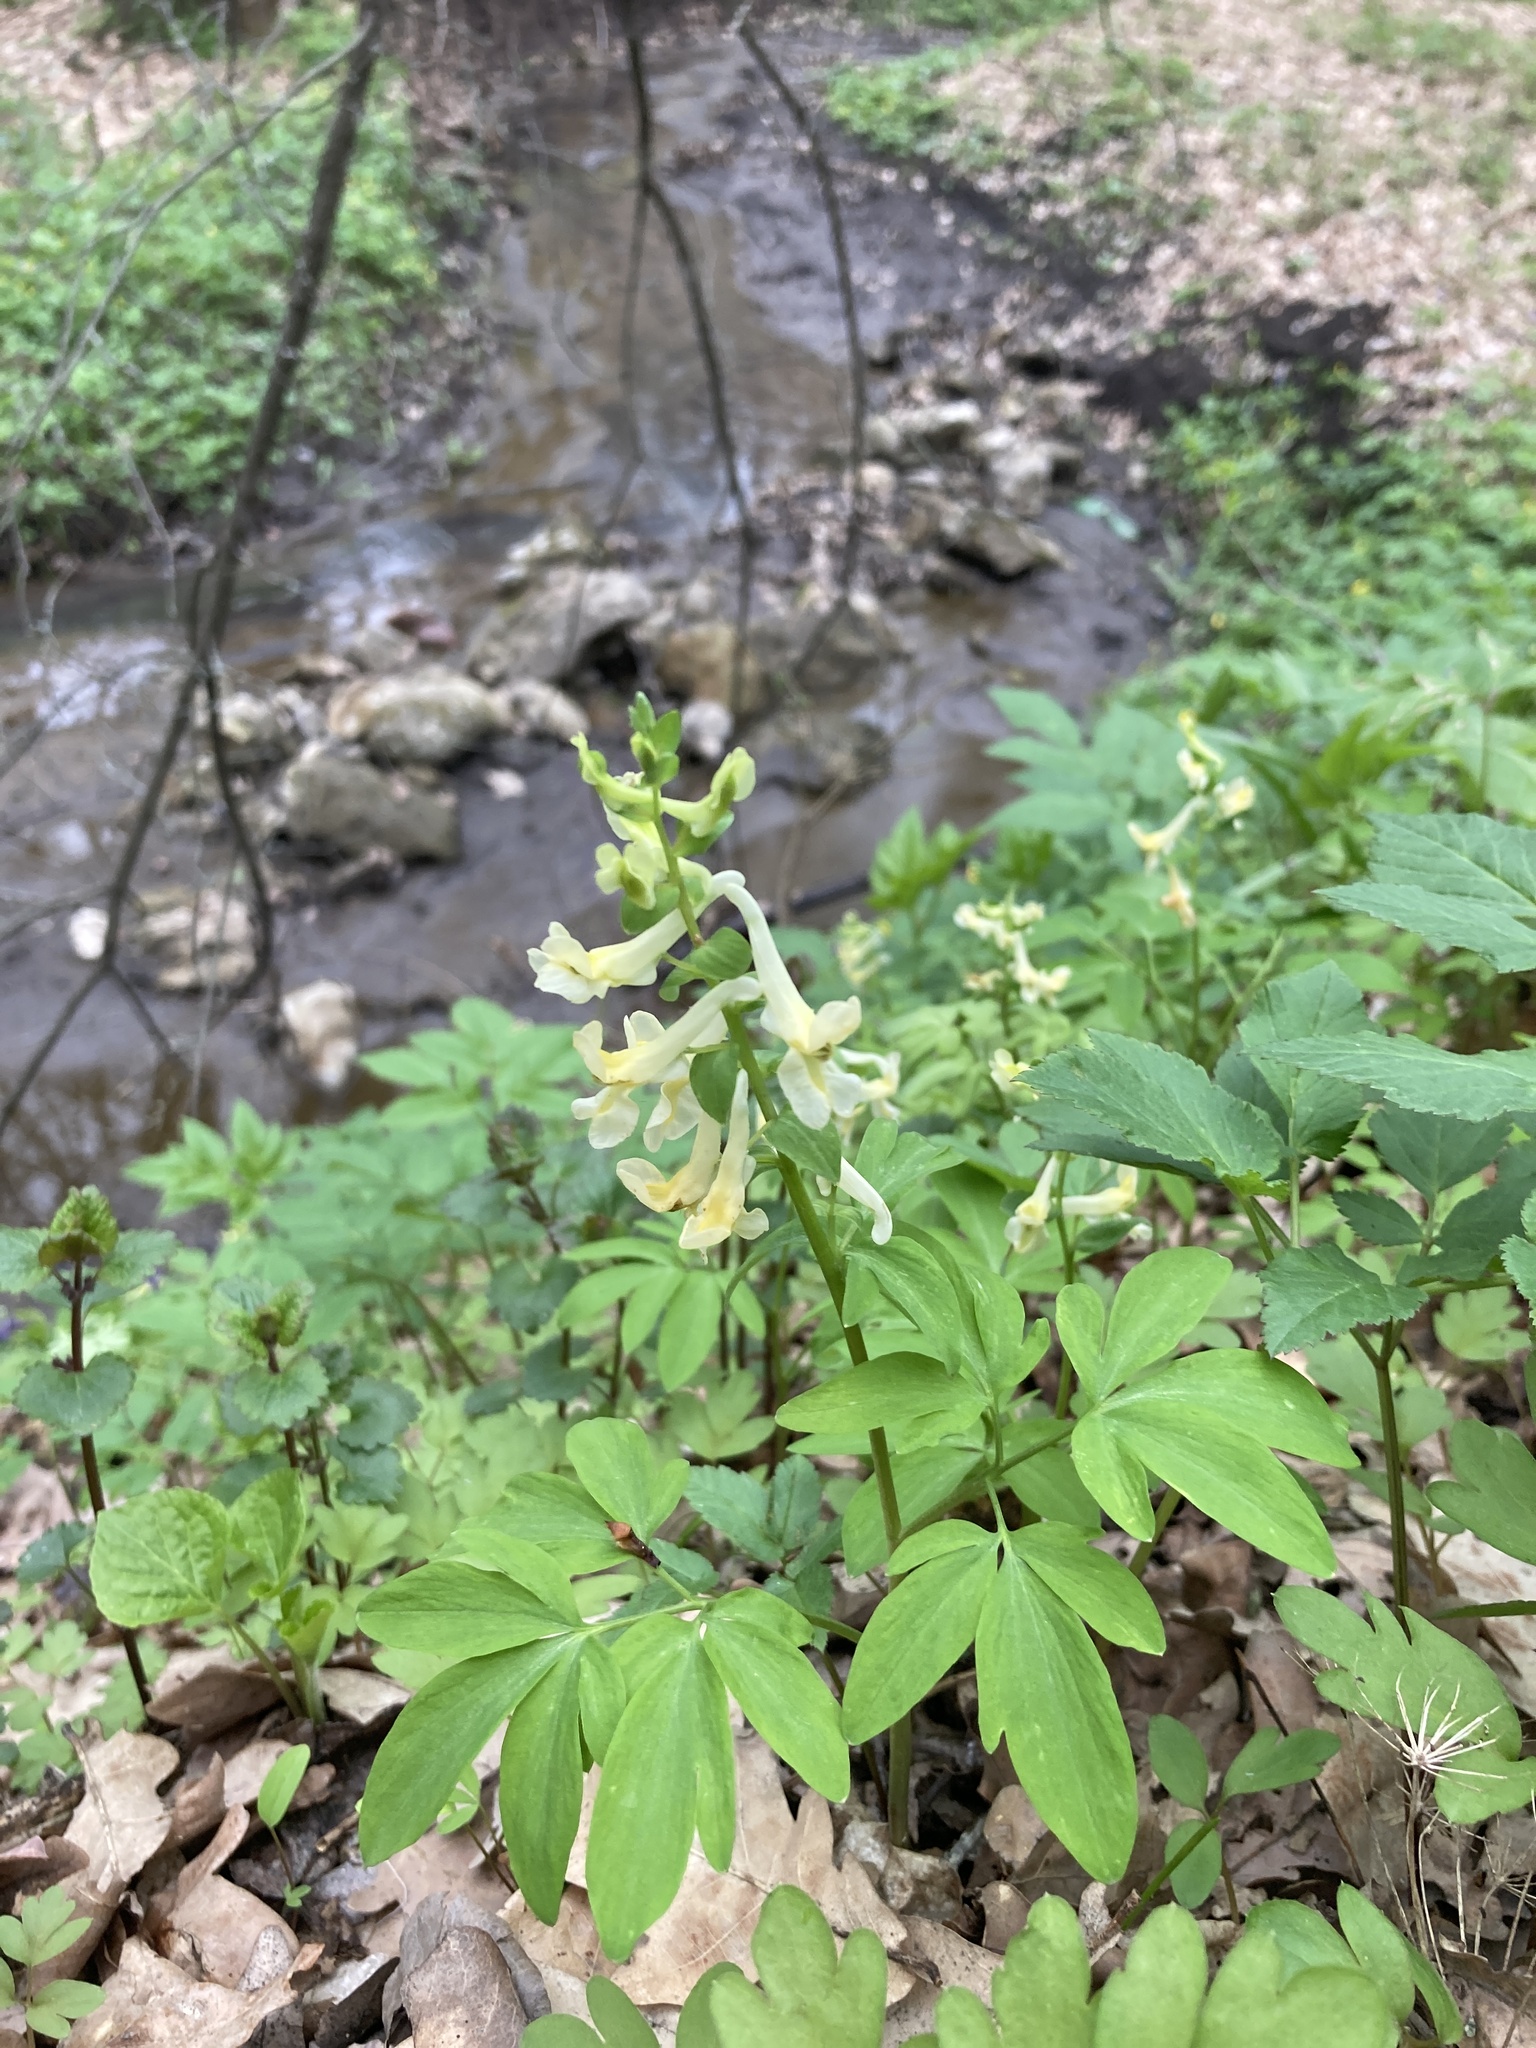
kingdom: Plantae
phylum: Tracheophyta
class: Magnoliopsida
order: Ranunculales
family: Papaveraceae
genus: Corydalis
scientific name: Corydalis cava
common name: Hollowroot
